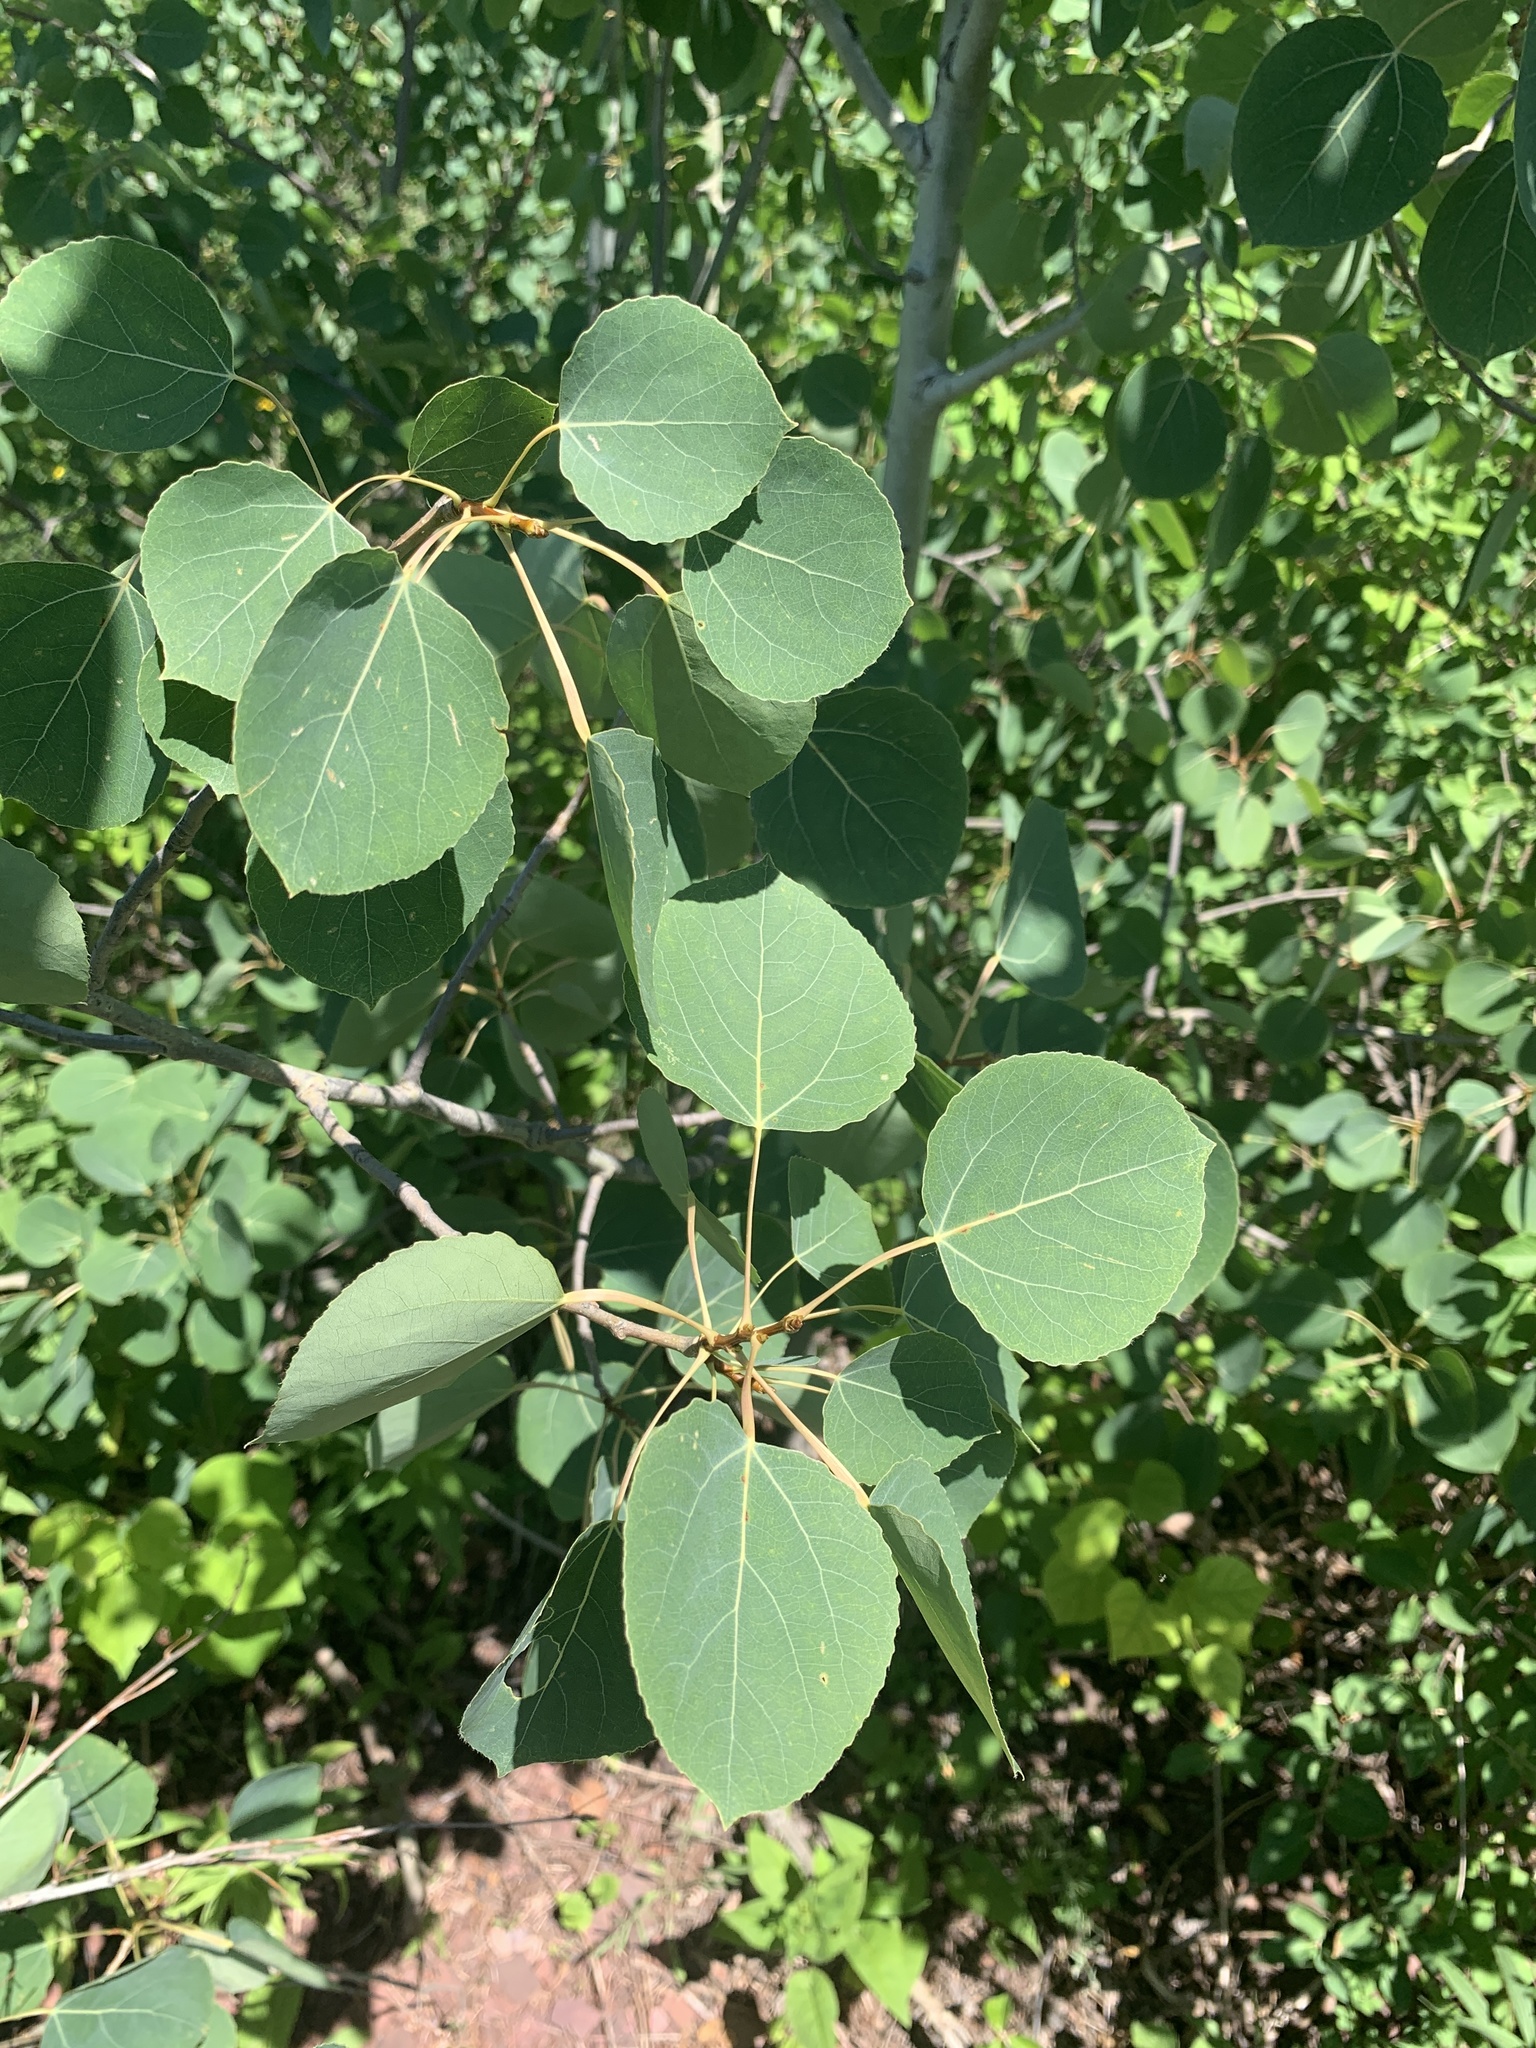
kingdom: Plantae
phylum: Tracheophyta
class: Magnoliopsida
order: Malpighiales
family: Salicaceae
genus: Populus
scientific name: Populus tremuloides
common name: Quaking aspen
